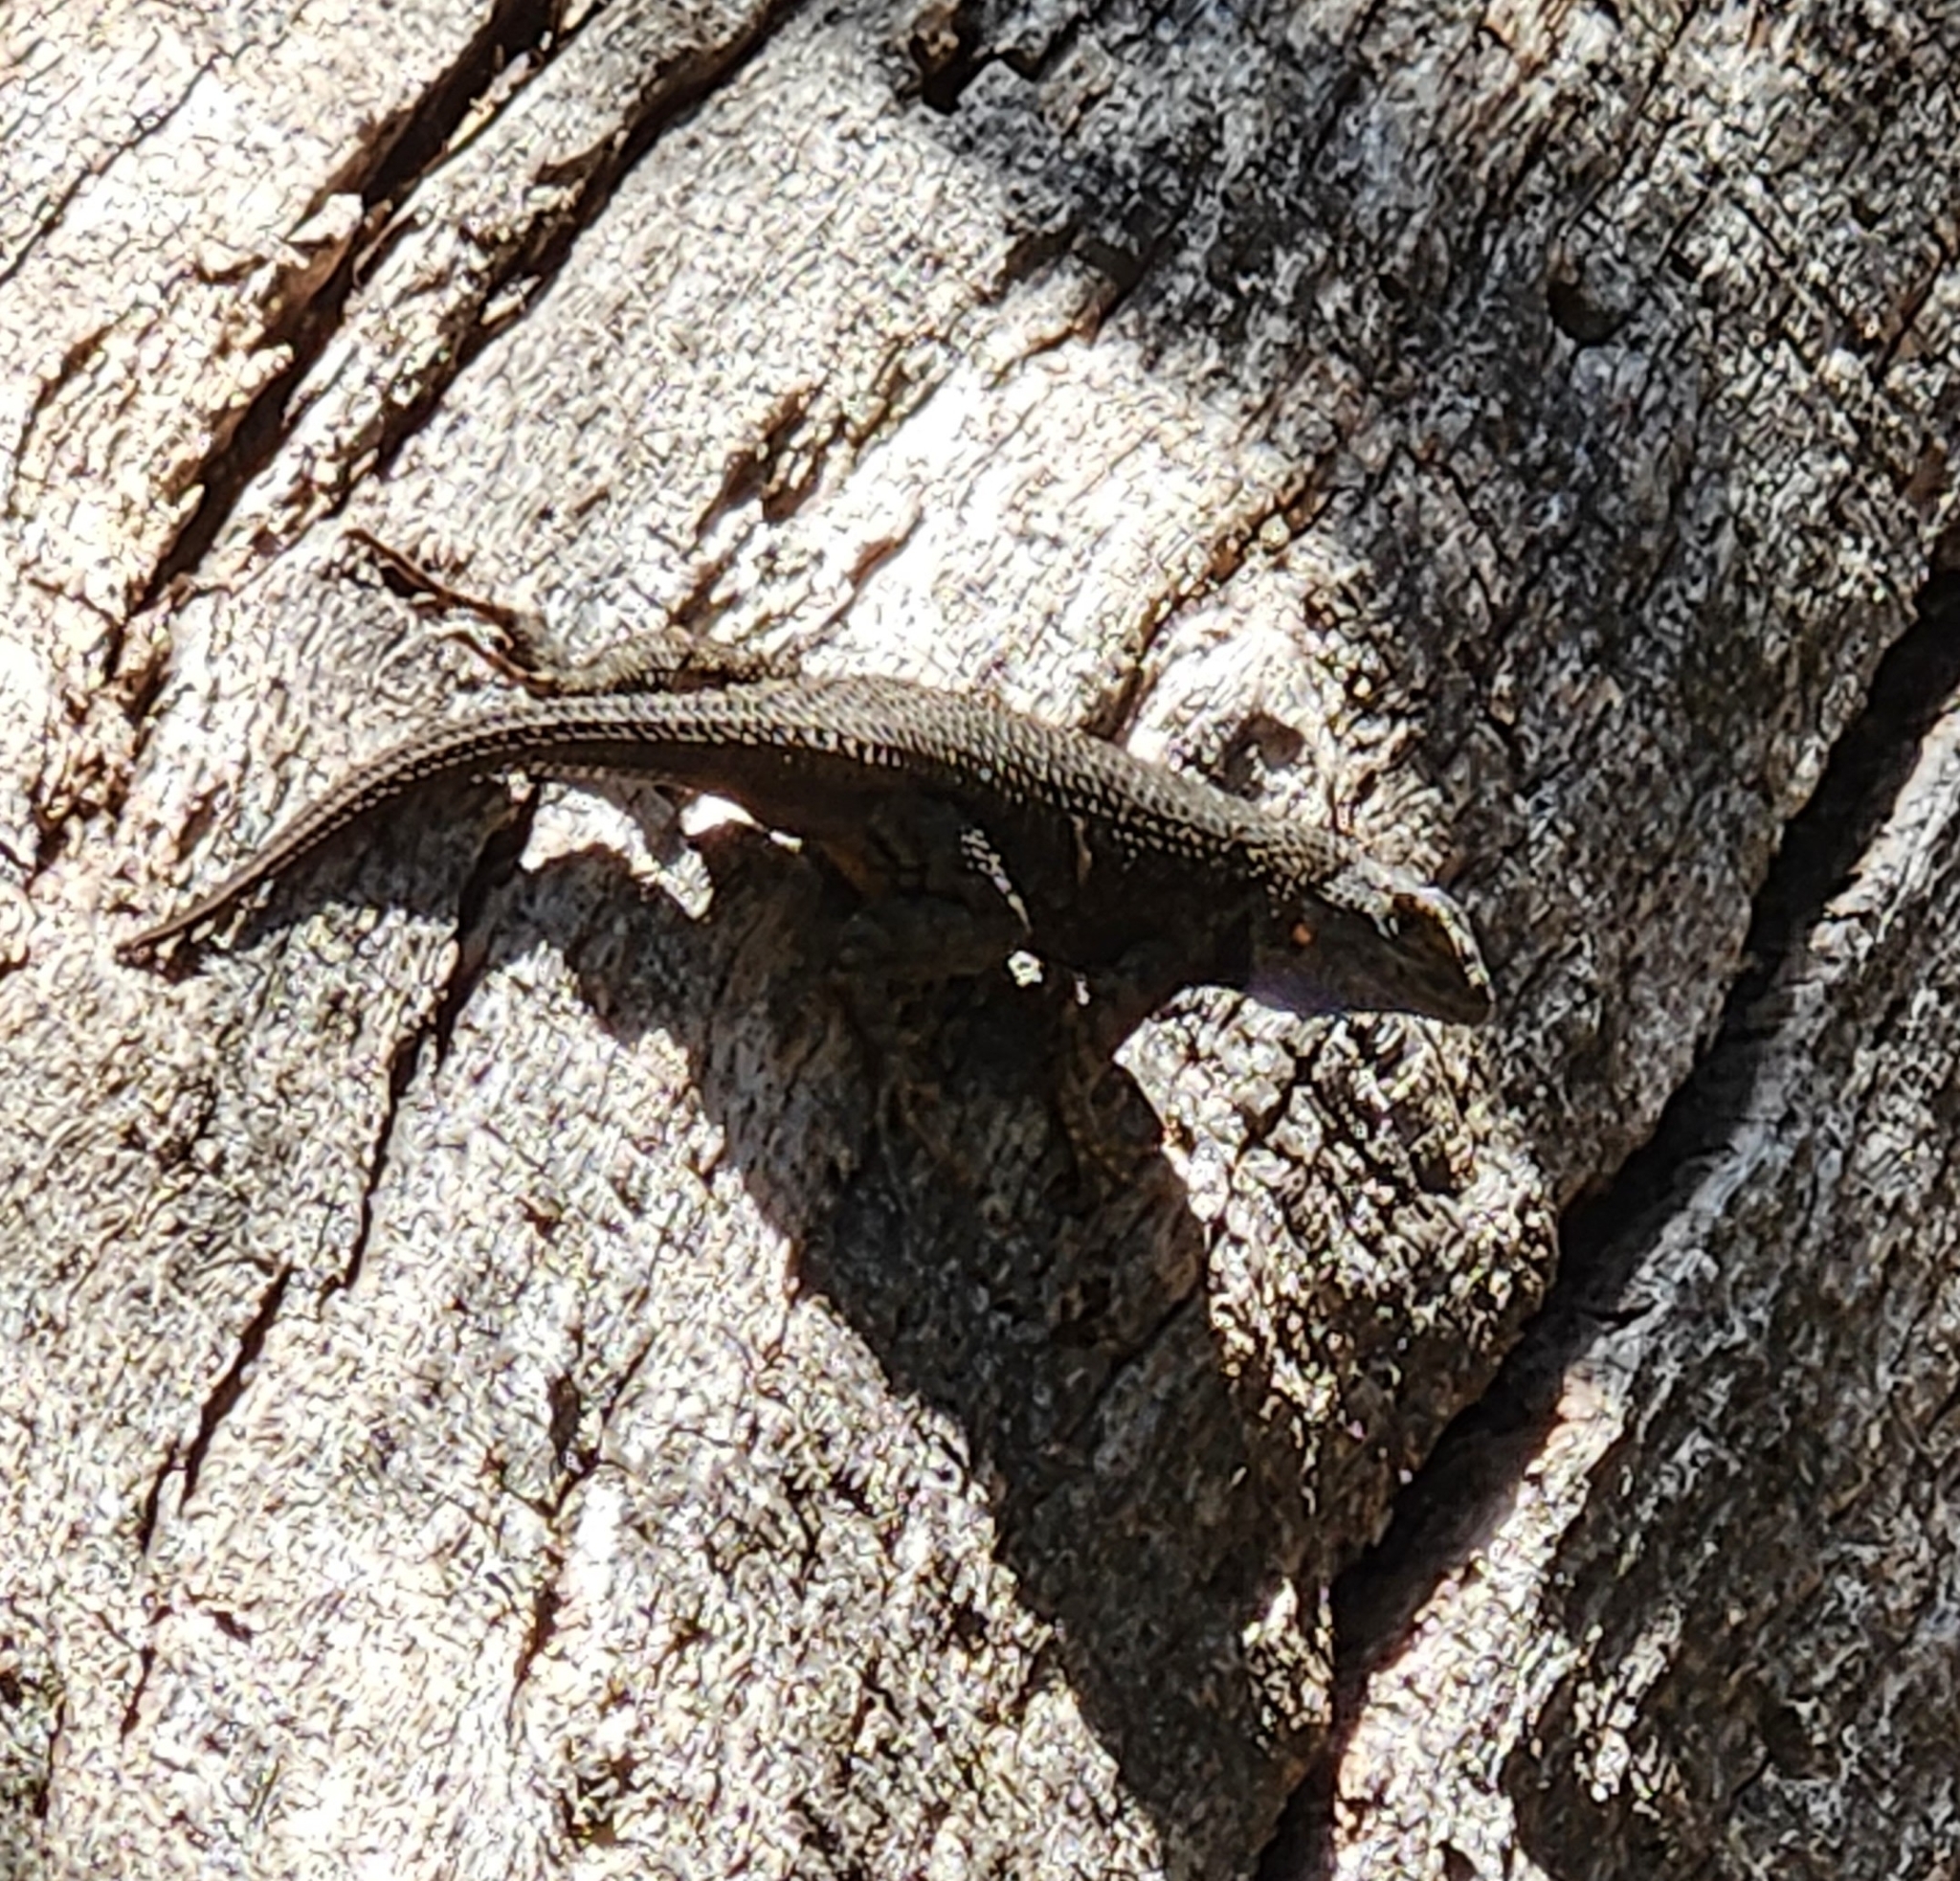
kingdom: Animalia
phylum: Chordata
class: Squamata
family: Phrynosomatidae
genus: Sceloporus
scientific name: Sceloporus occidentalis
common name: Western fence lizard
